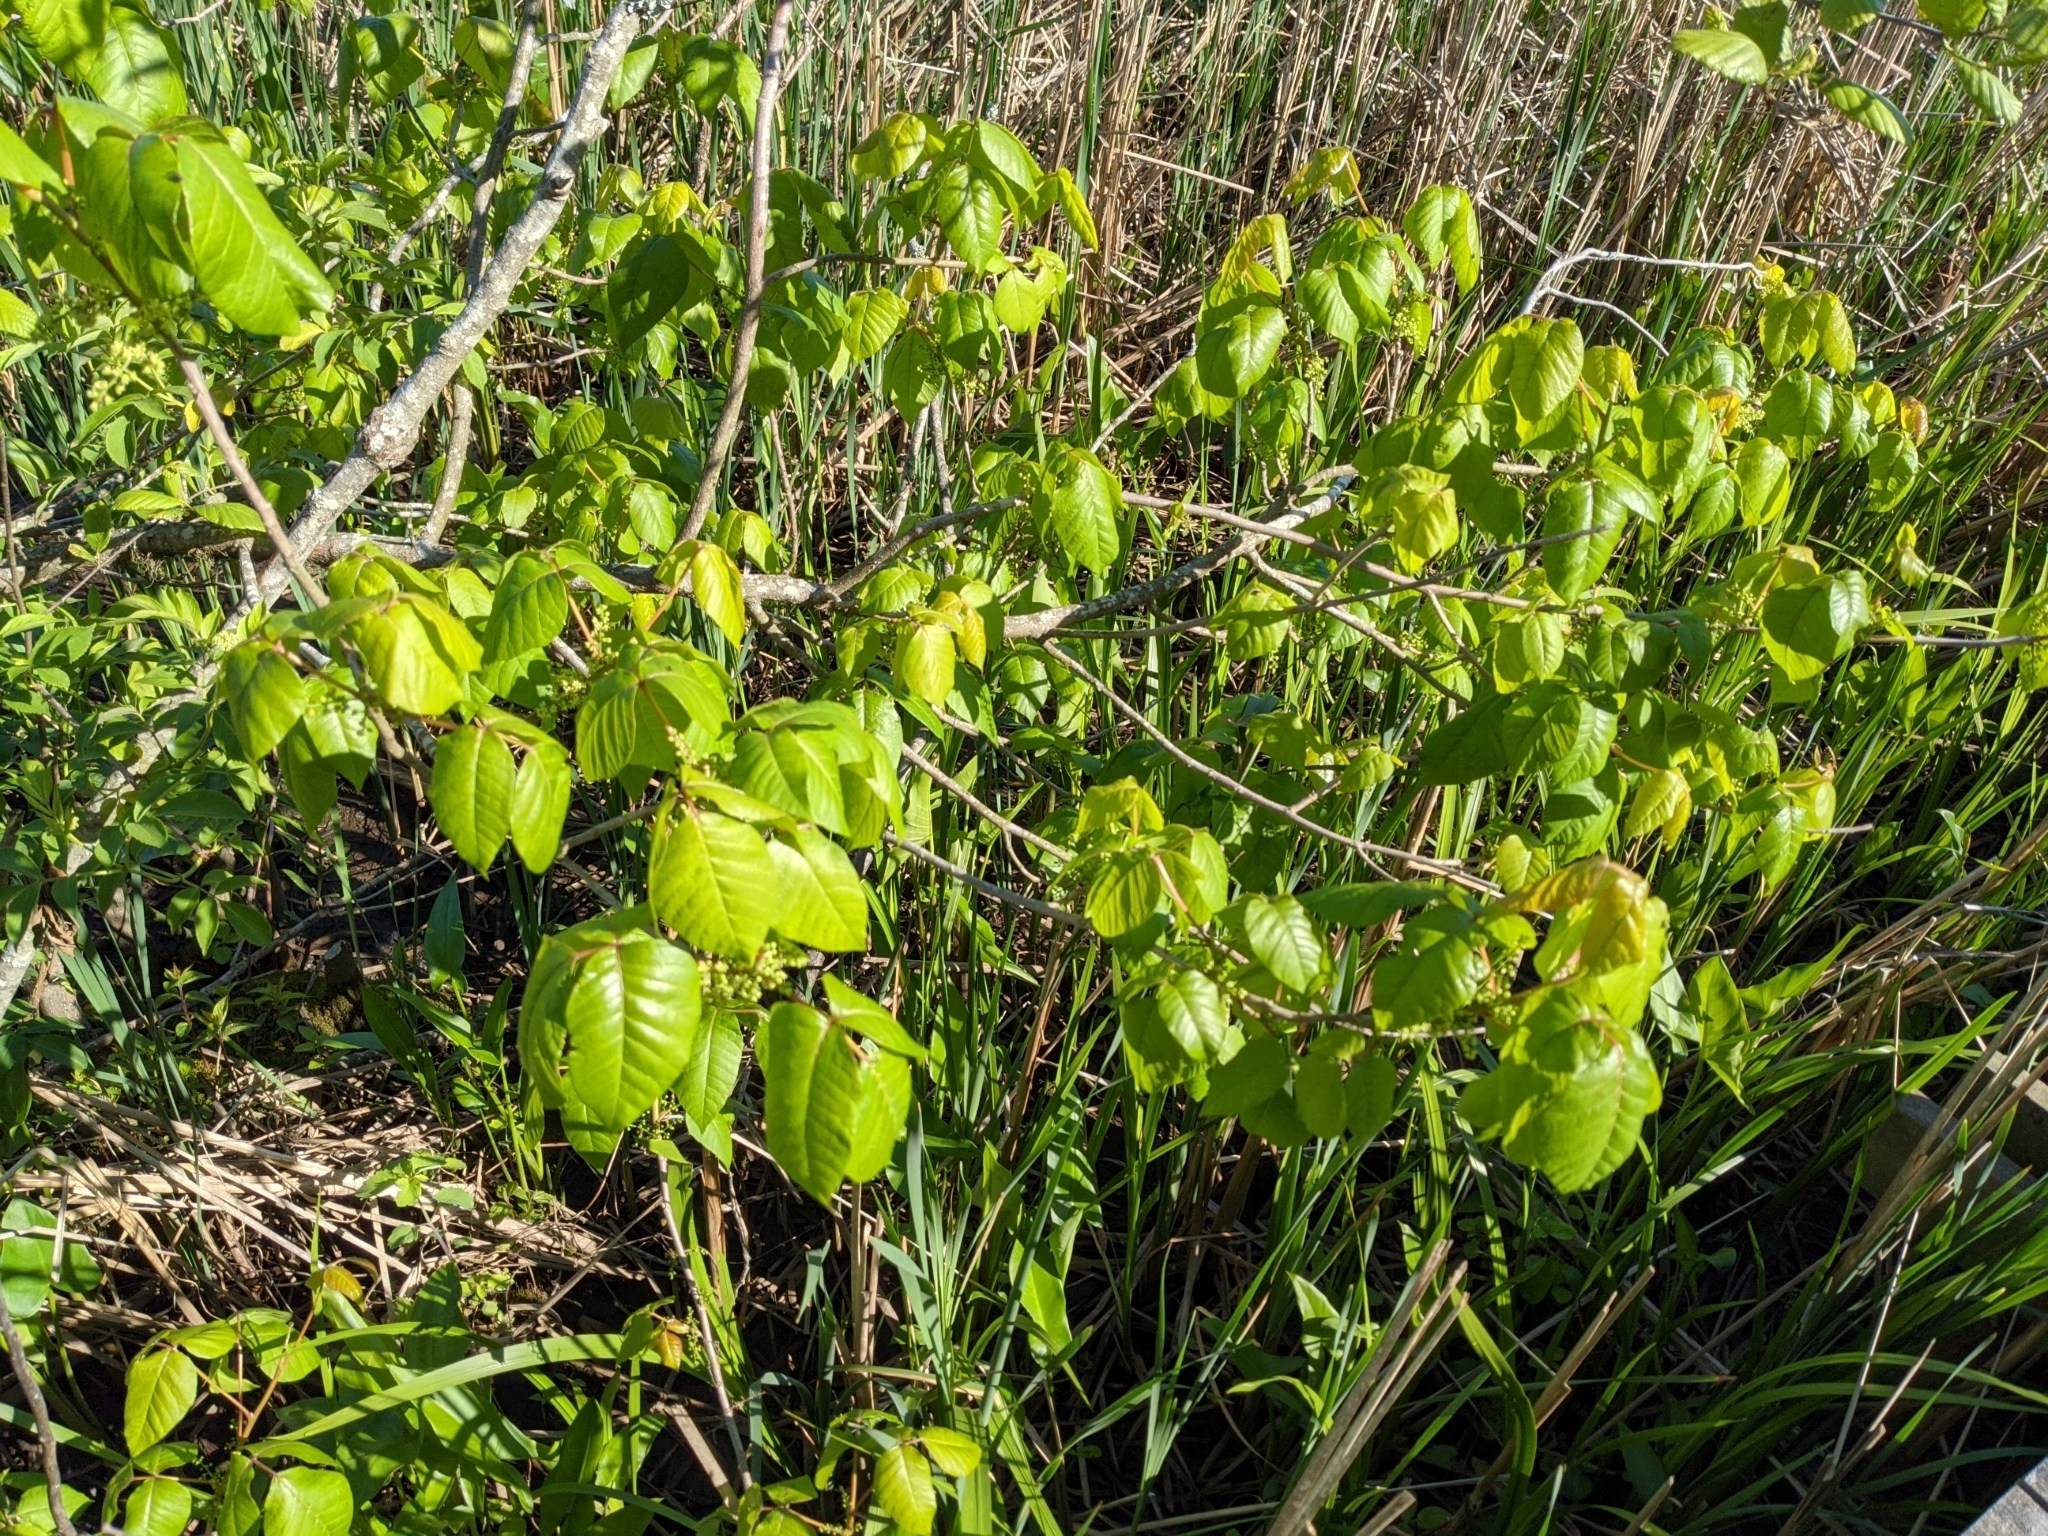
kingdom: Plantae
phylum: Tracheophyta
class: Magnoliopsida
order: Sapindales
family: Anacardiaceae
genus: Toxicodendron
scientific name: Toxicodendron radicans
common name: Poison ivy
